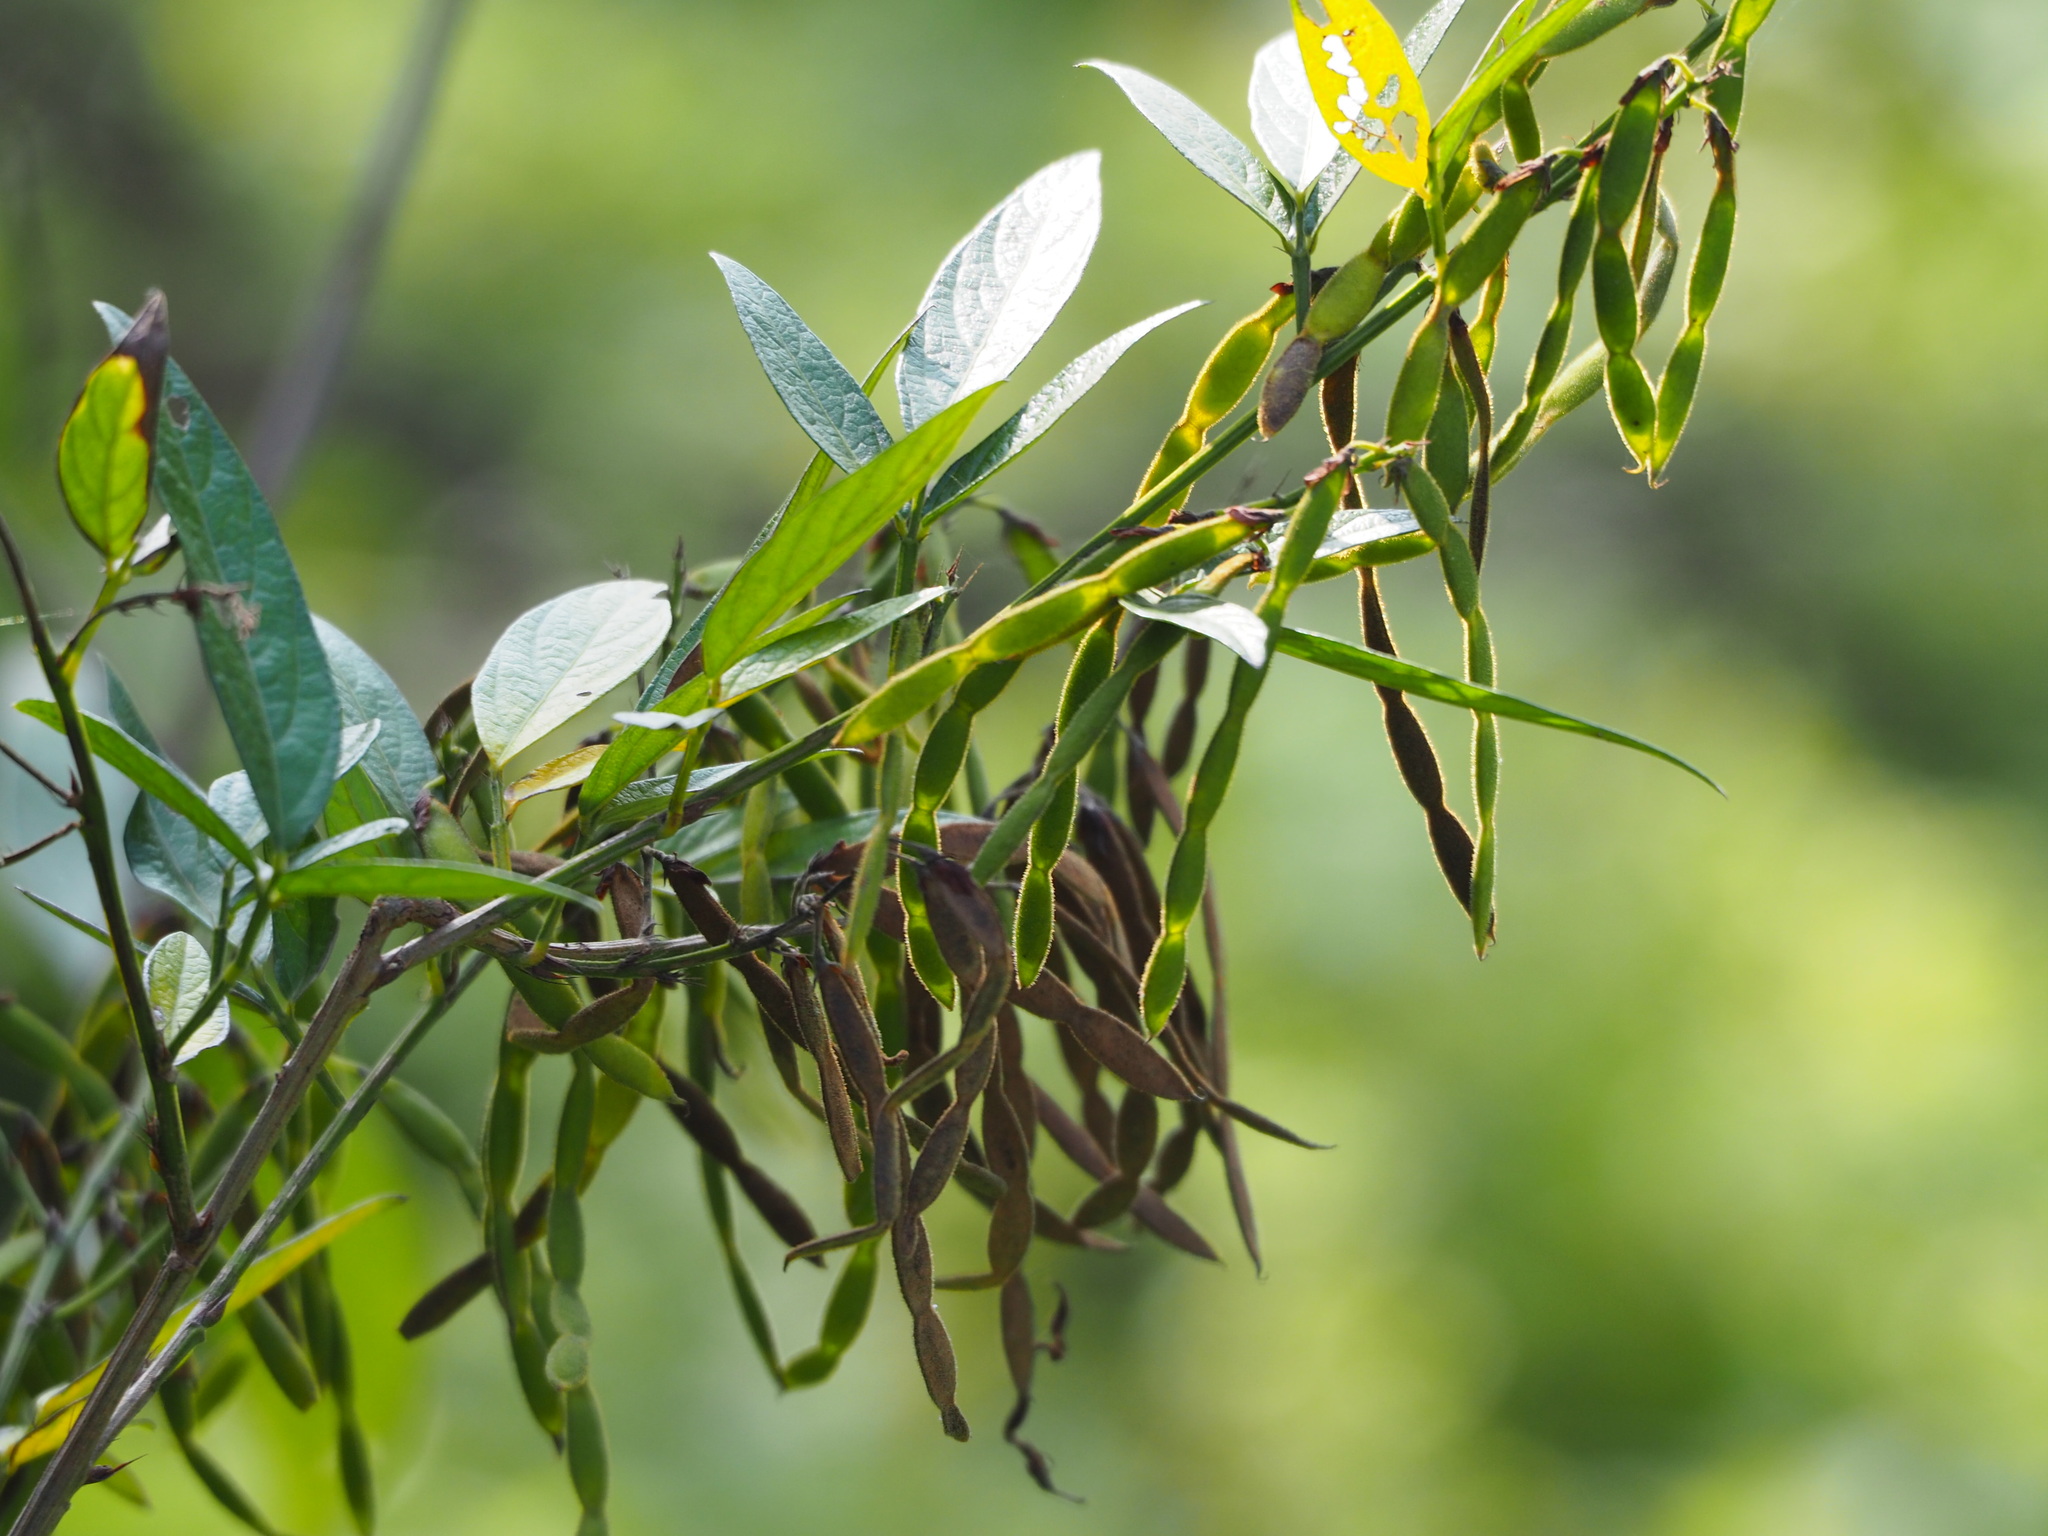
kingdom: Plantae
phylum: Tracheophyta
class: Magnoliopsida
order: Fabales
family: Fabaceae
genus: Ohwia
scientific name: Ohwia caudata
